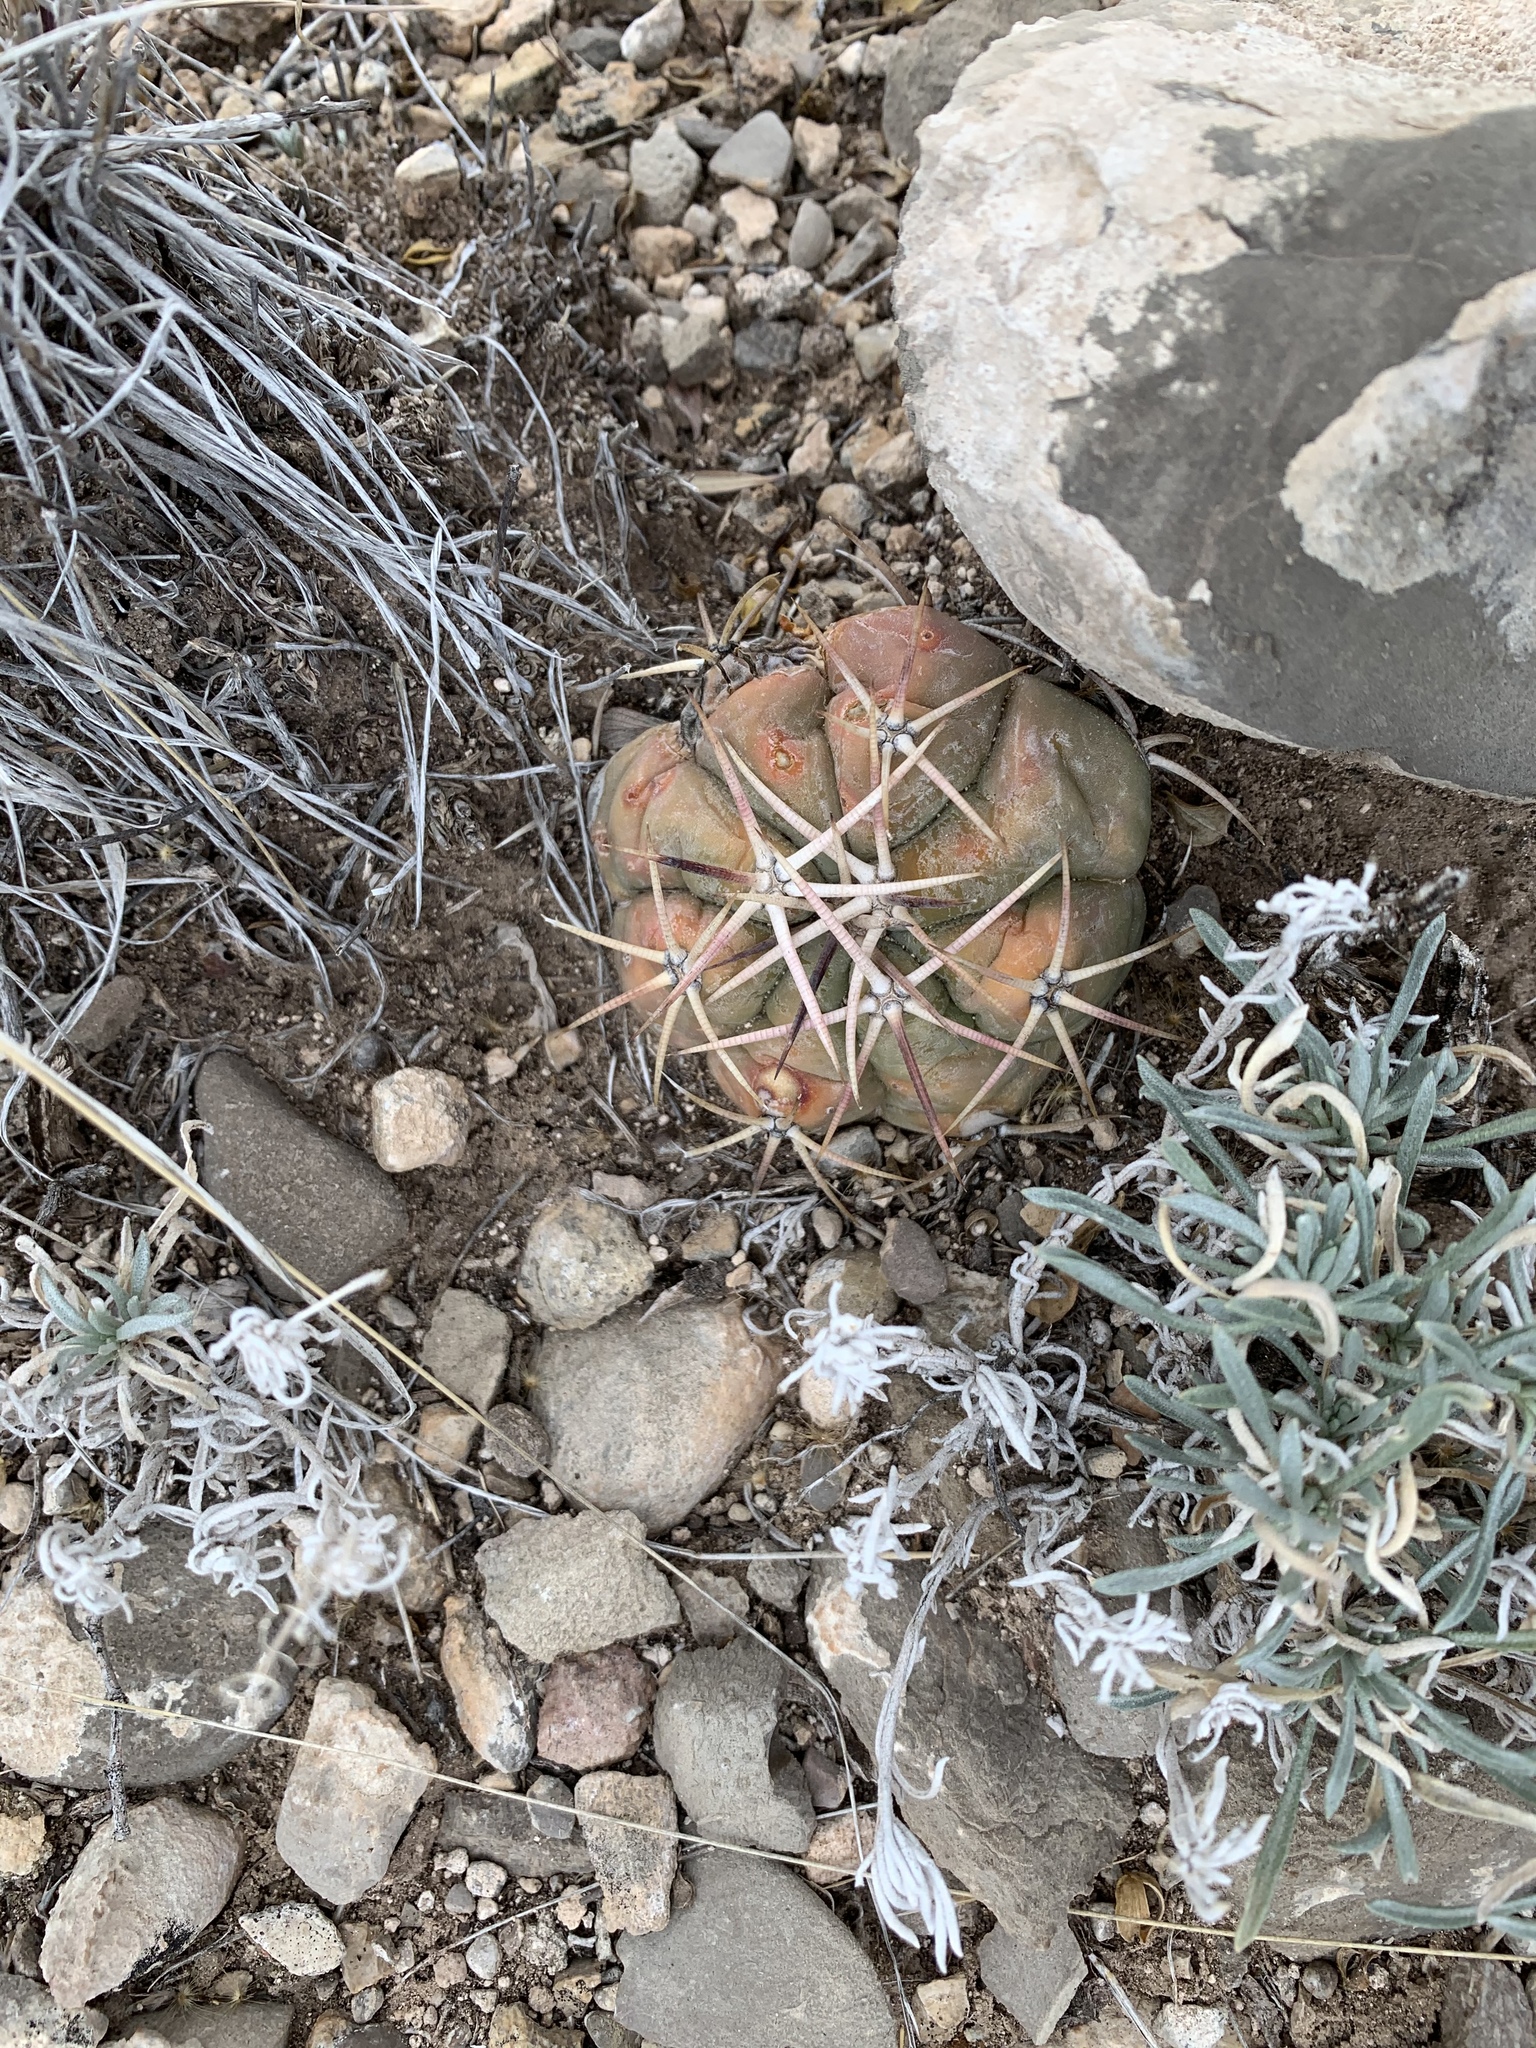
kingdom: Plantae
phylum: Tracheophyta
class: Magnoliopsida
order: Caryophyllales
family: Cactaceae
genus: Echinocactus
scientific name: Echinocactus horizonthalonius
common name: Devilshead
